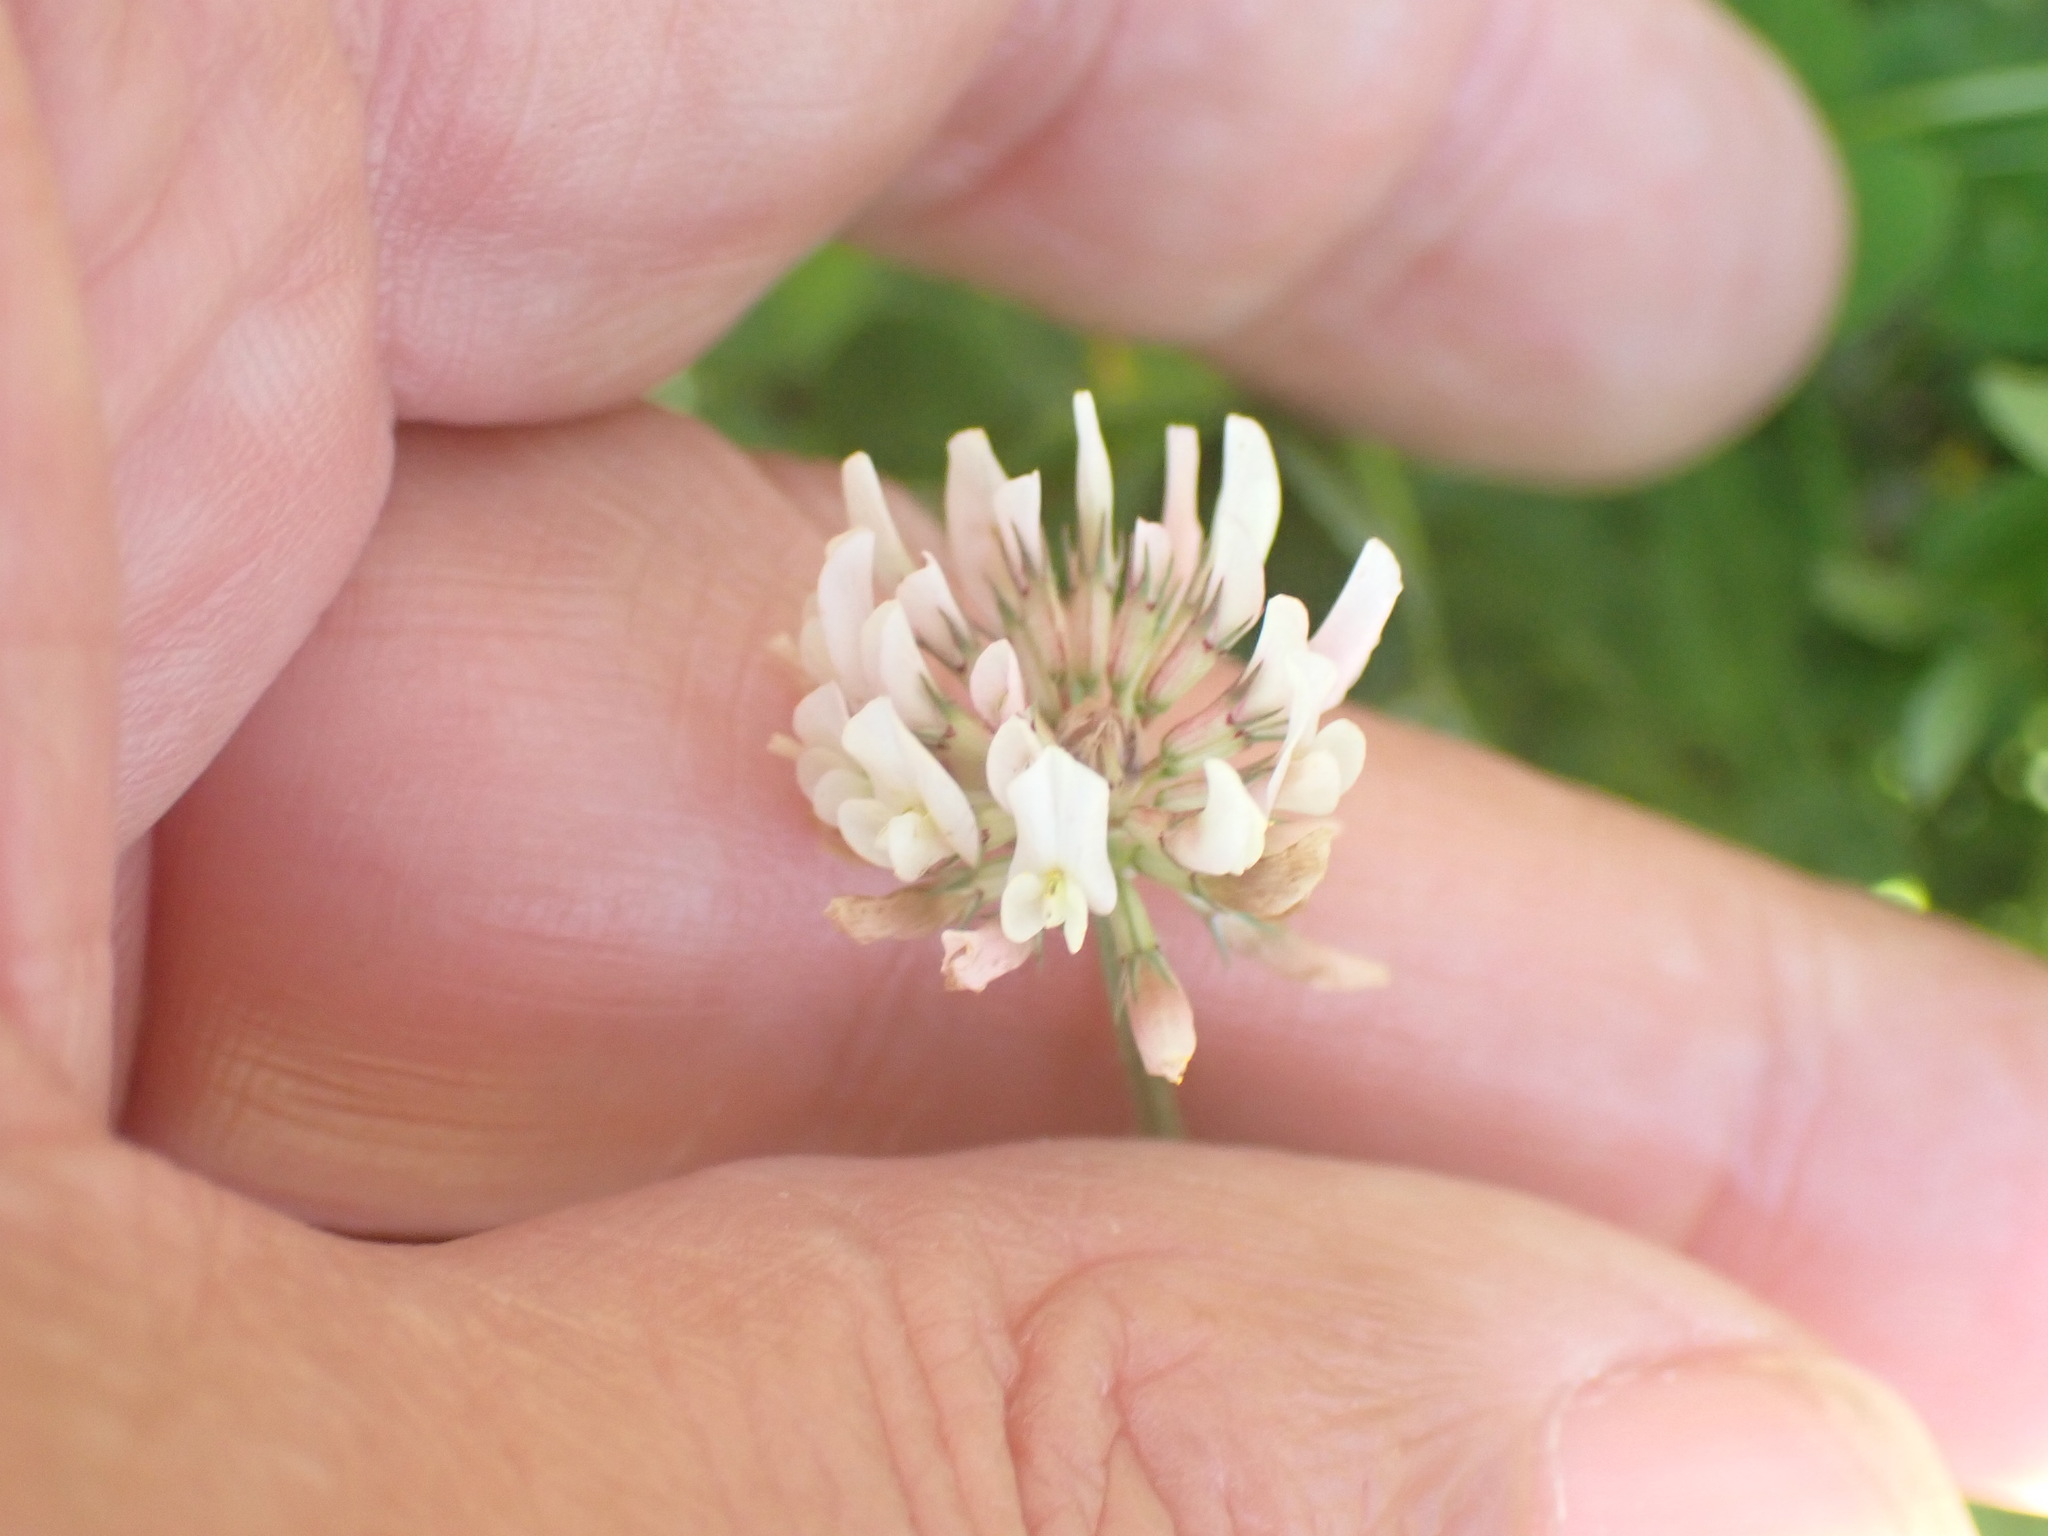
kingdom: Plantae
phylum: Tracheophyta
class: Magnoliopsida
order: Fabales
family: Fabaceae
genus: Trifolium
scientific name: Trifolium repens
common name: White clover
